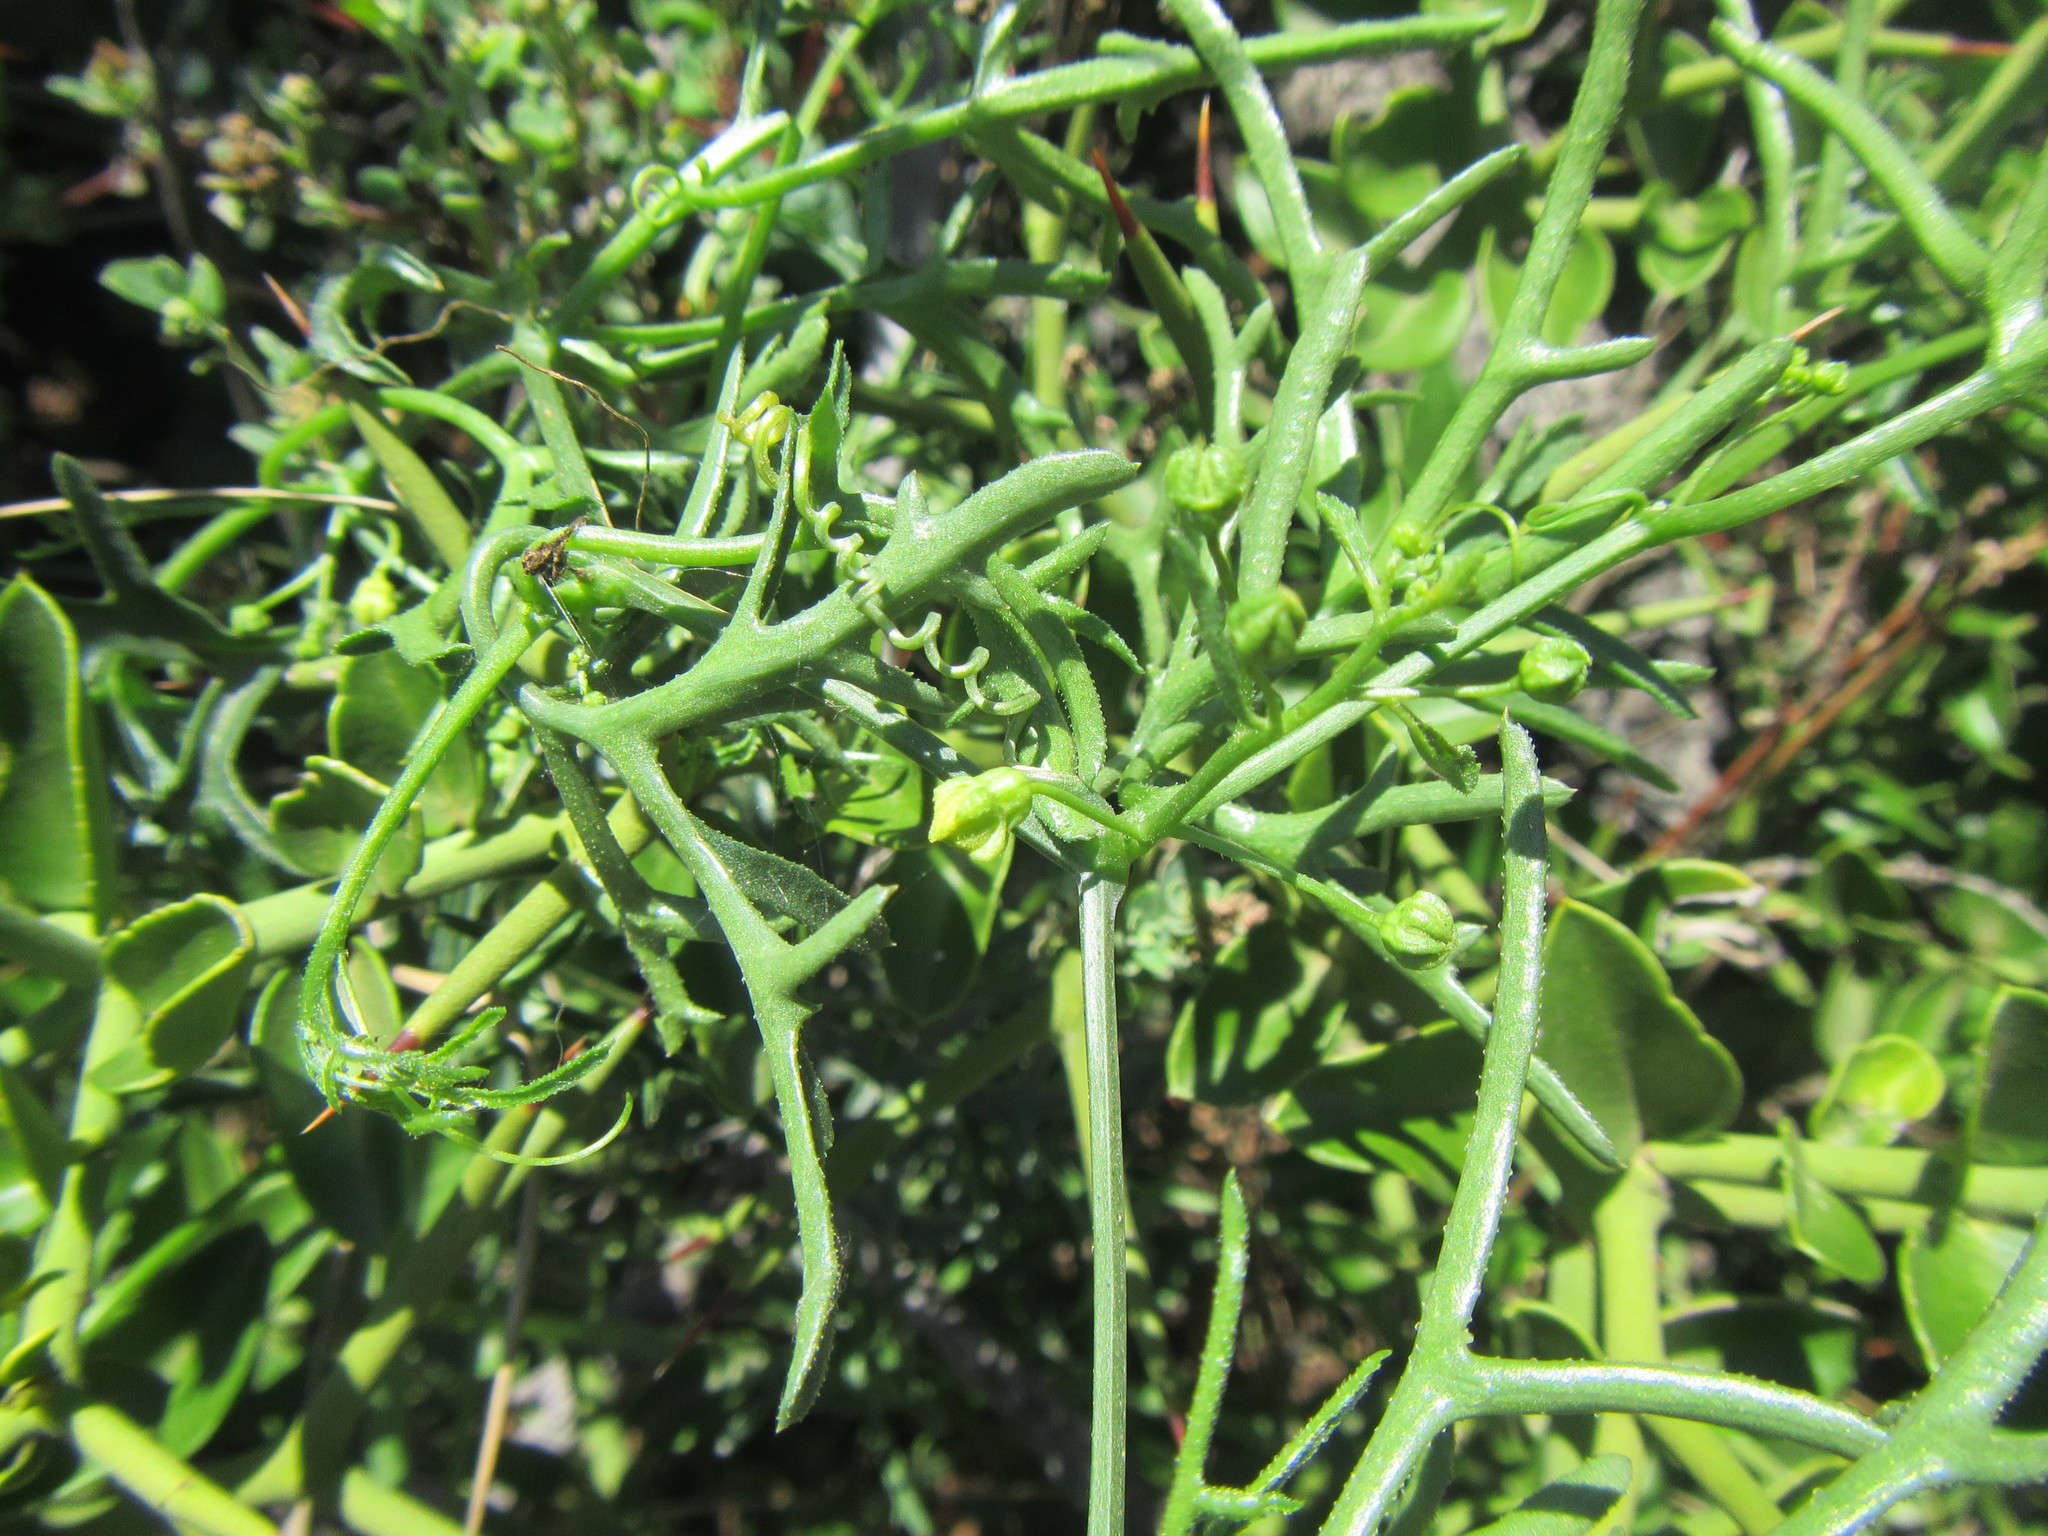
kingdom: Plantae
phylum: Tracheophyta
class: Magnoliopsida
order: Cucurbitales
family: Cucurbitaceae
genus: Kedrostis
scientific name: Kedrostis capensis
